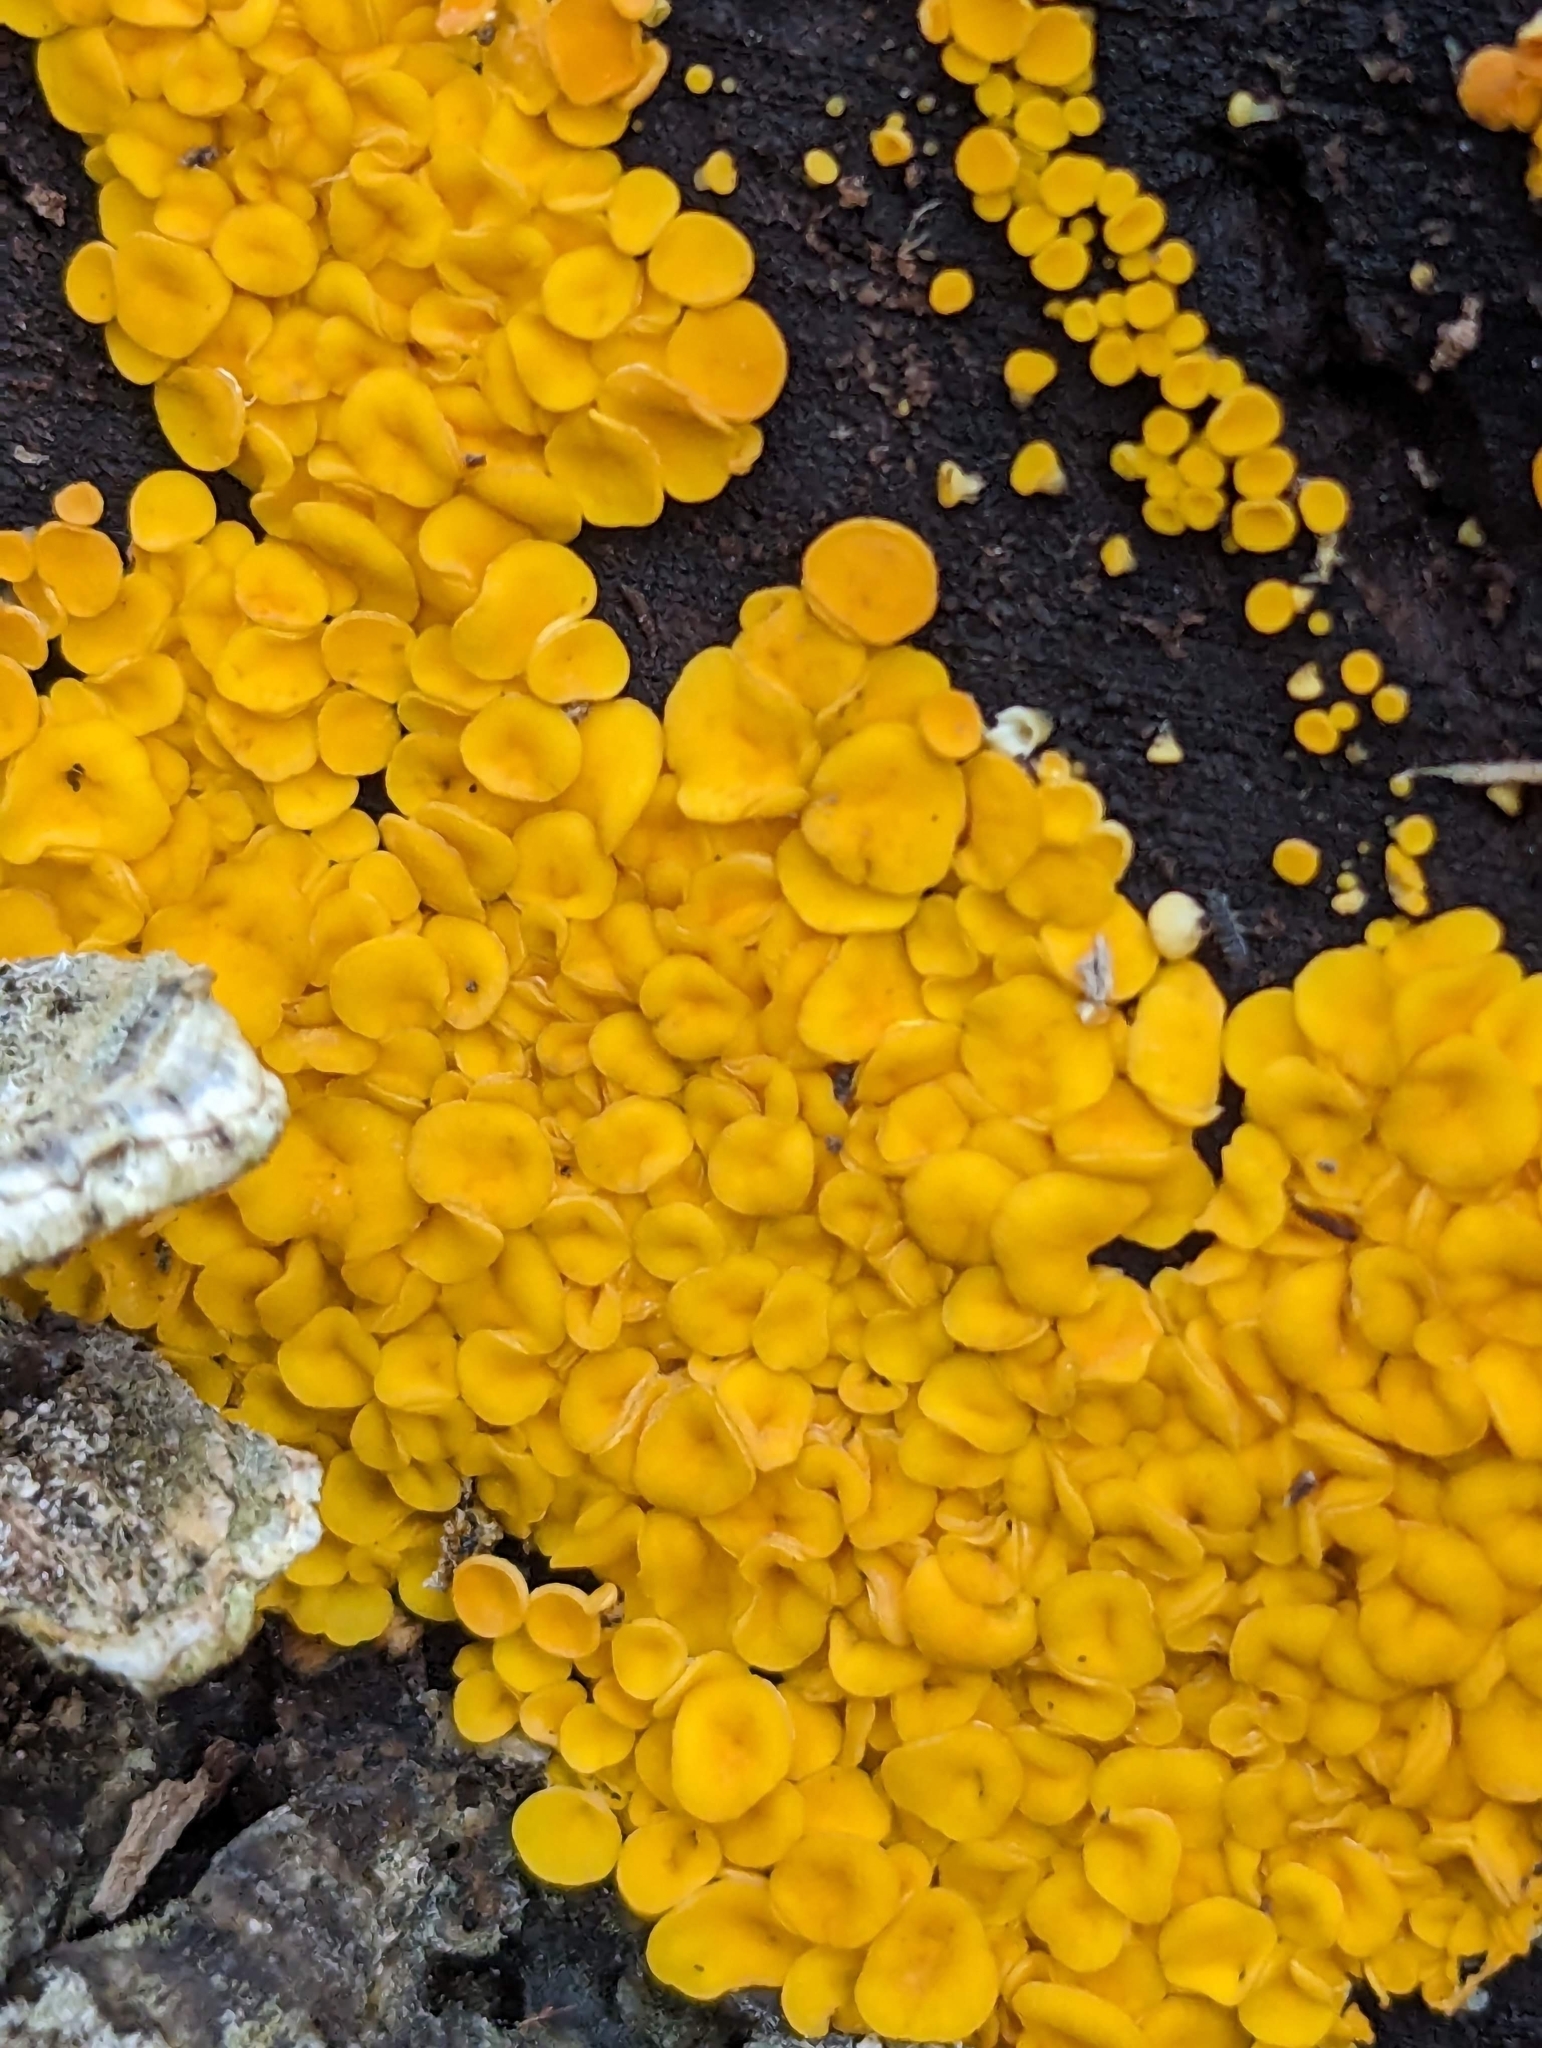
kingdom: Fungi
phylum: Ascomycota
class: Leotiomycetes
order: Helotiales
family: Pezizellaceae
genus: Calycina
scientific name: Calycina citrina
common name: Yellow fairy cups
